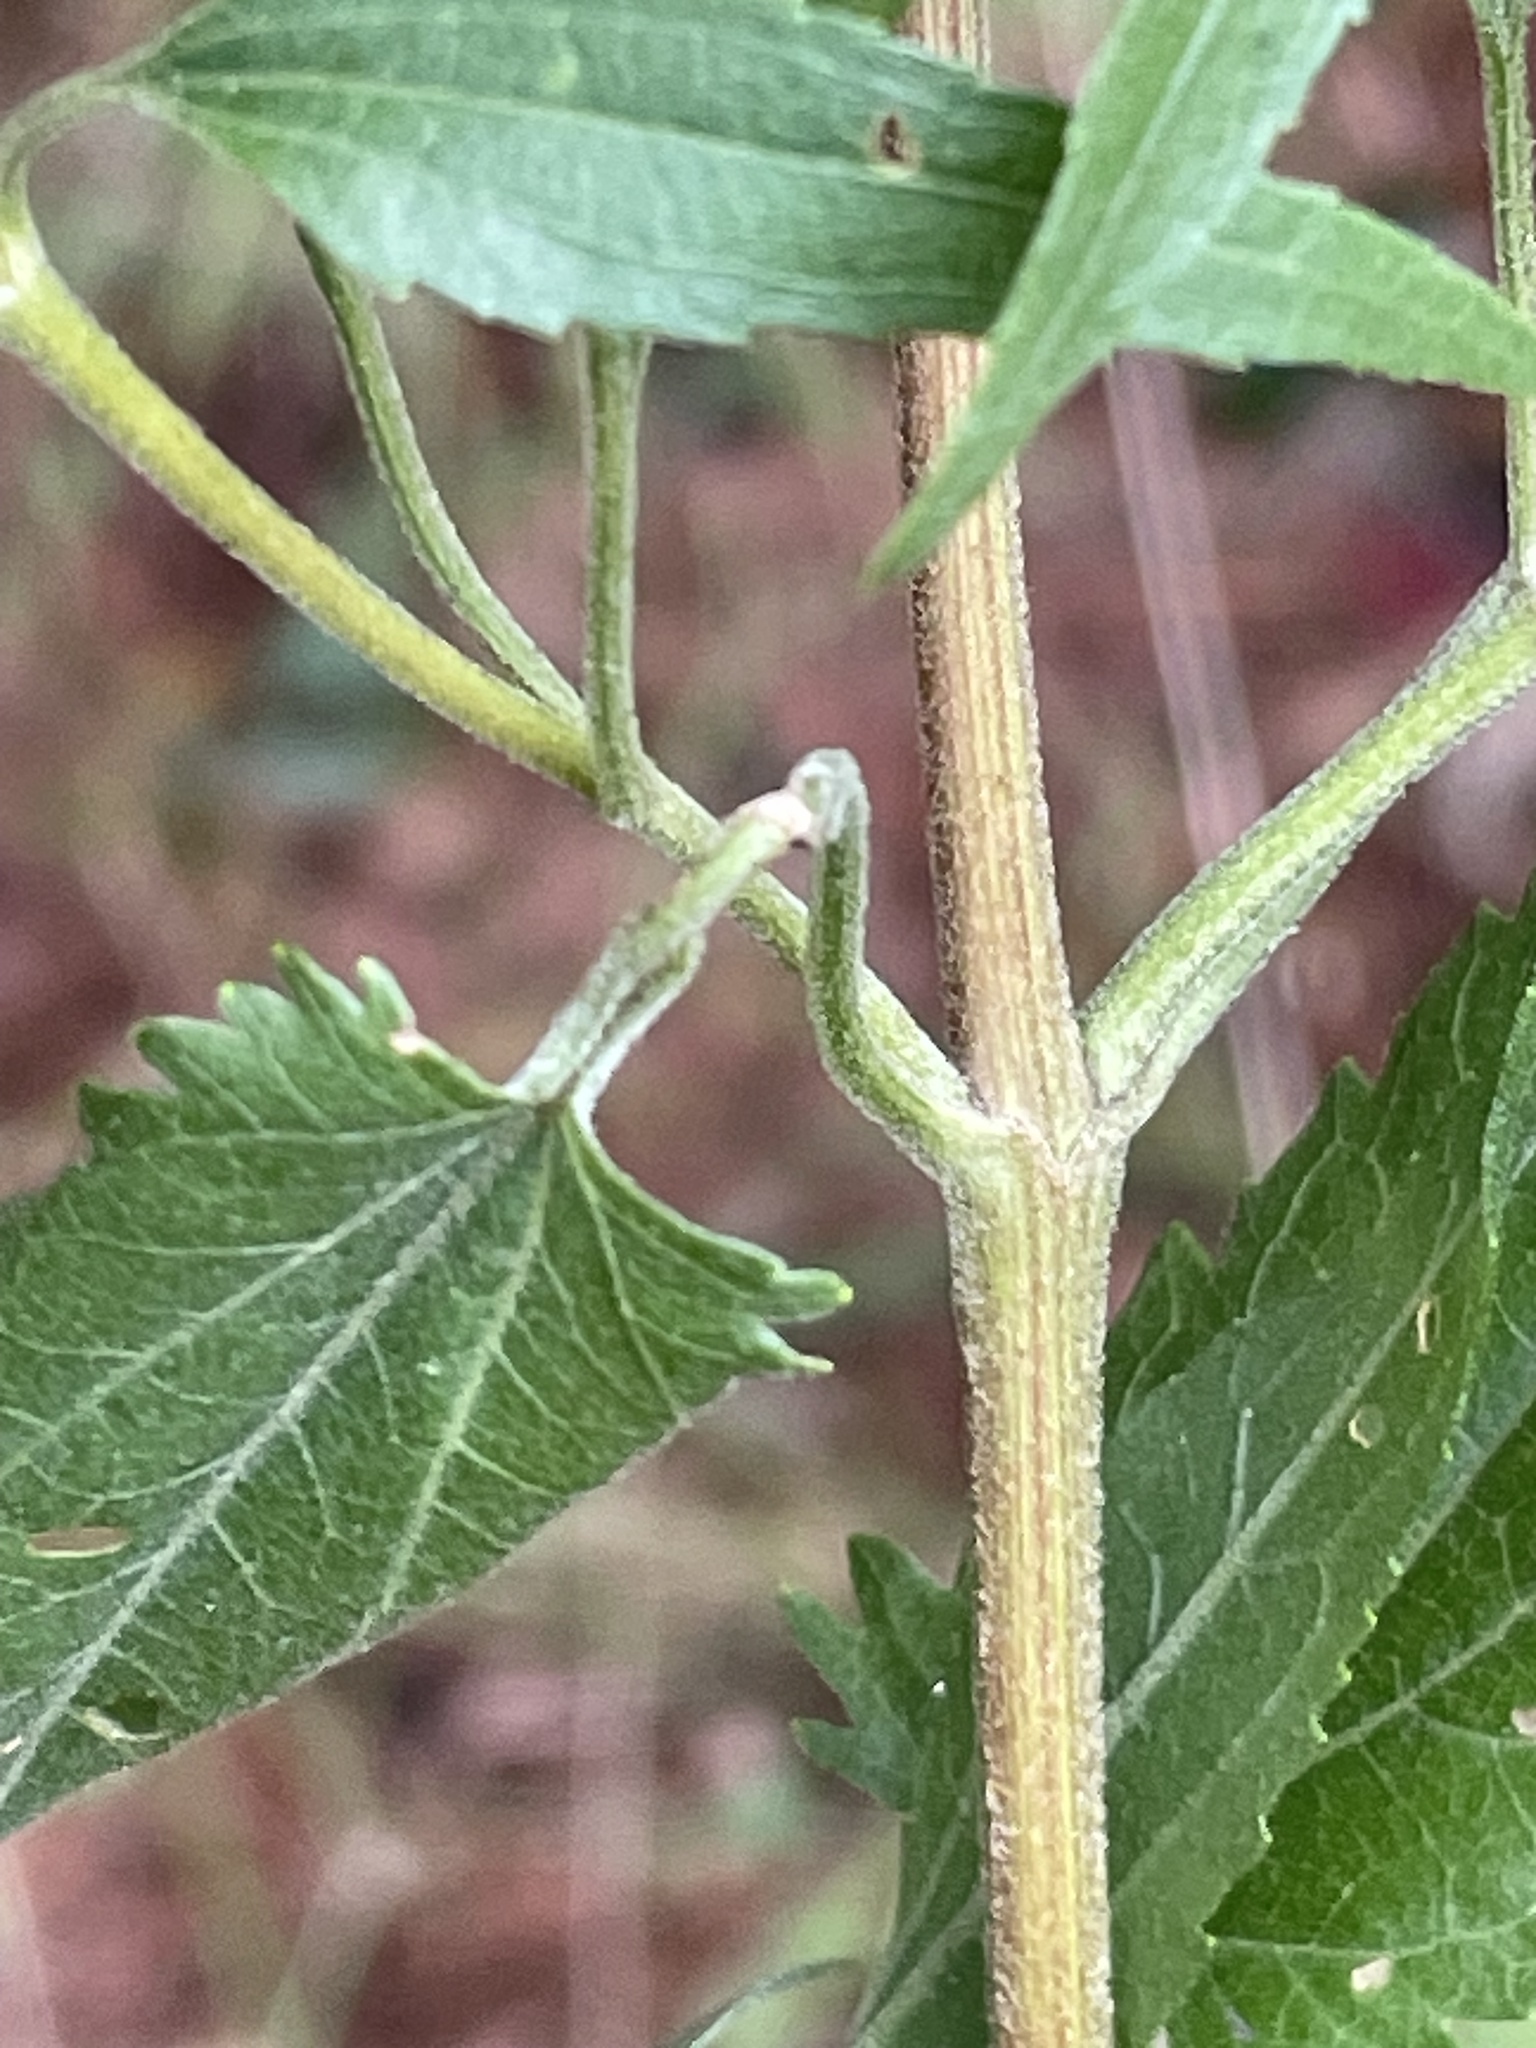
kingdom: Plantae
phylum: Tracheophyta
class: Magnoliopsida
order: Asterales
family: Asteraceae
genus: Eupatorium
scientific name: Eupatorium serotinum
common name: Late boneset
